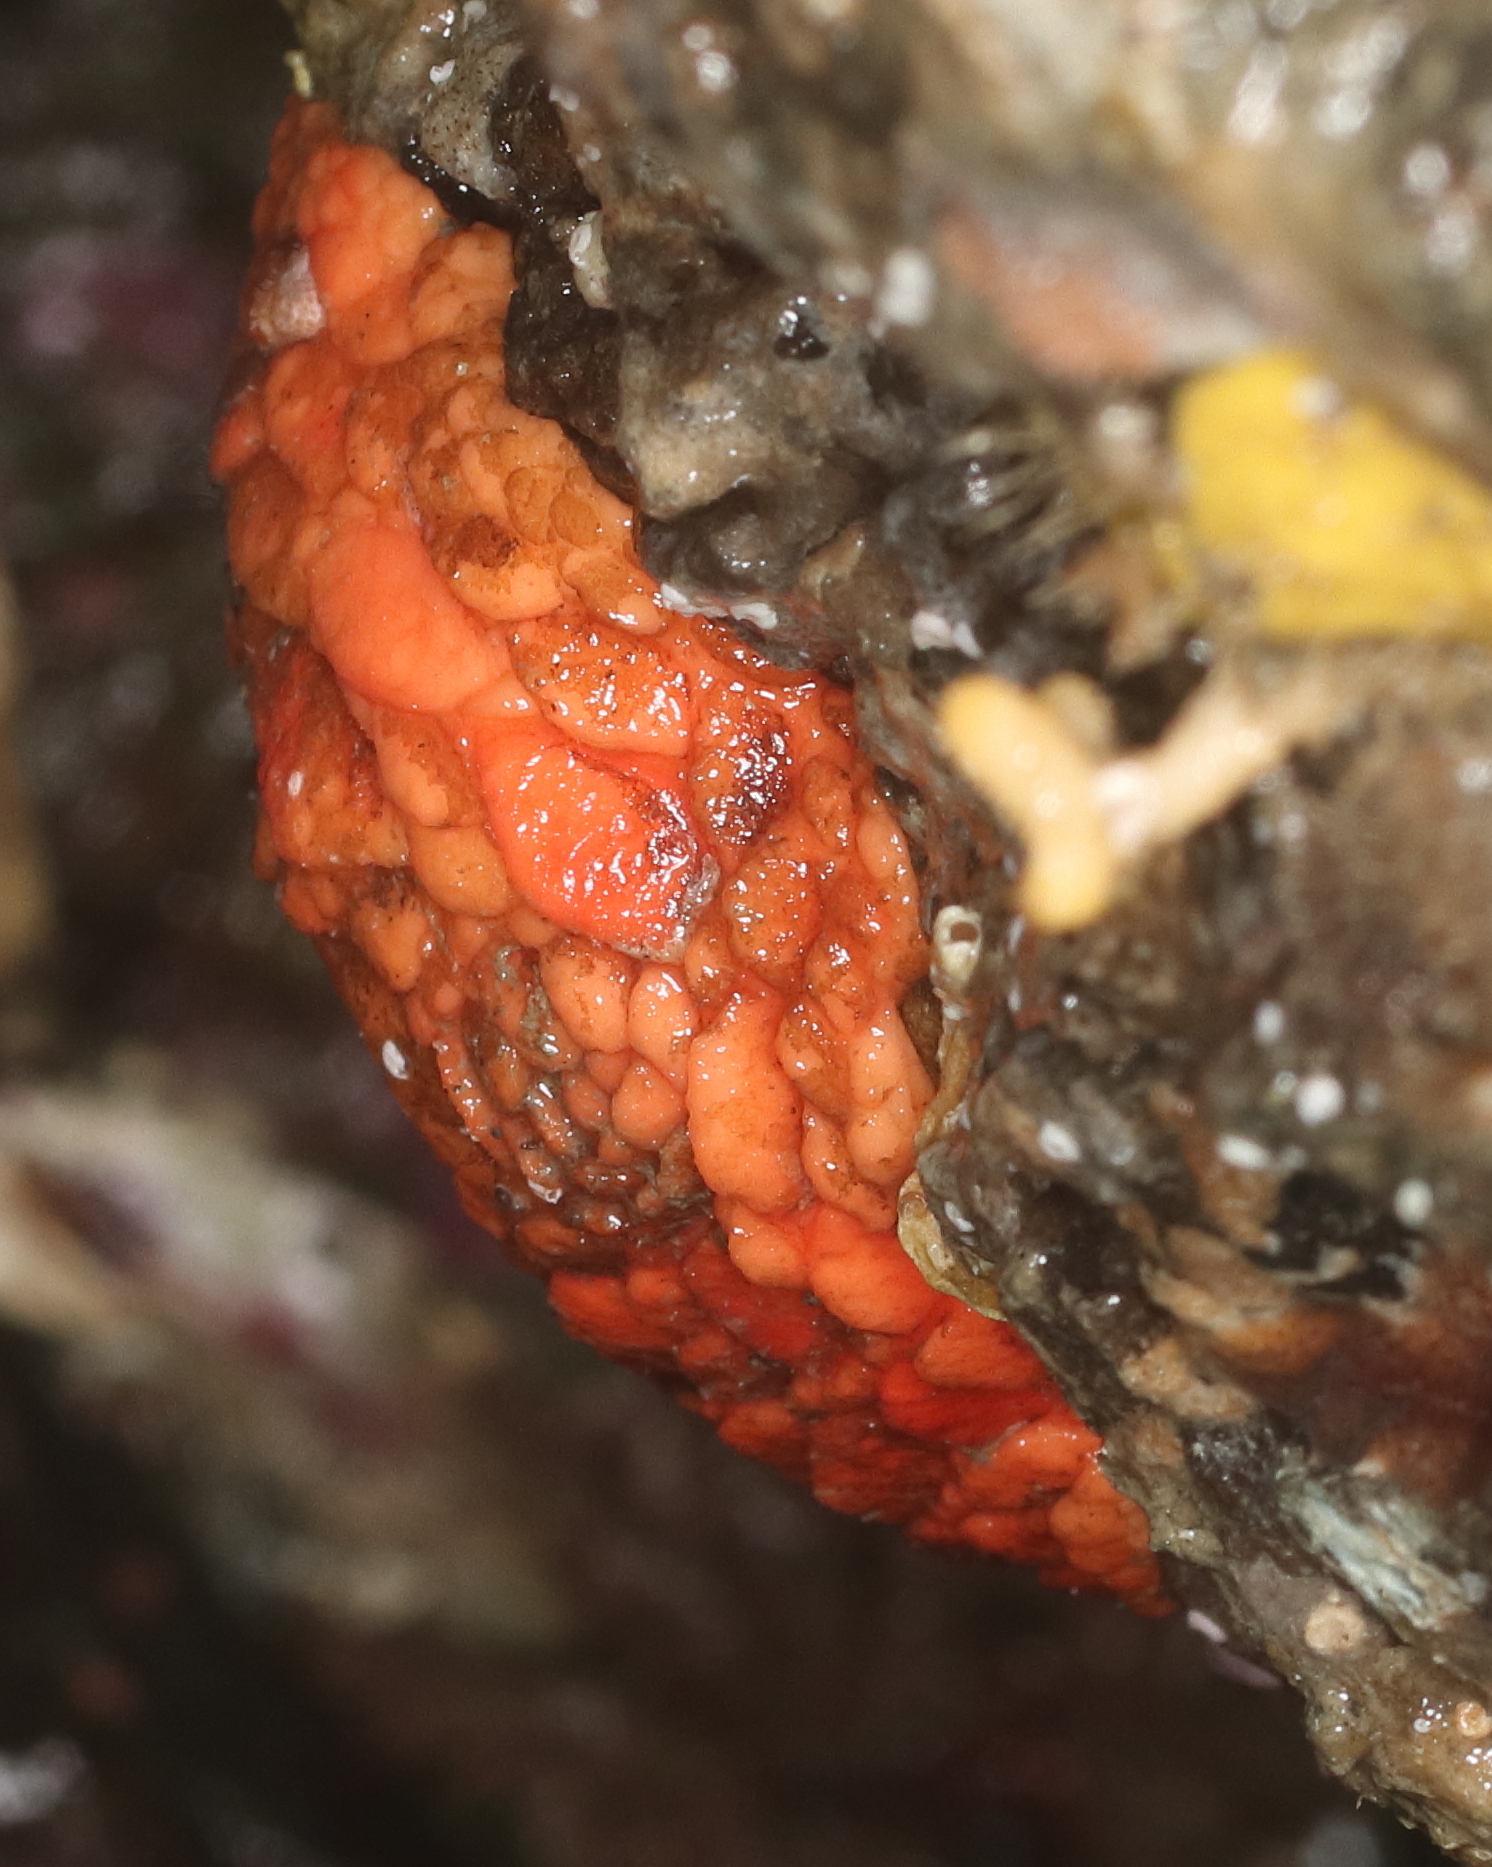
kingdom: Animalia
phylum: Echinodermata
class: Holothuroidea
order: Dendrochirotida
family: Psolidae
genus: Psolus
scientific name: Psolus chitonoides
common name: Creeping pedal sea cucumber
